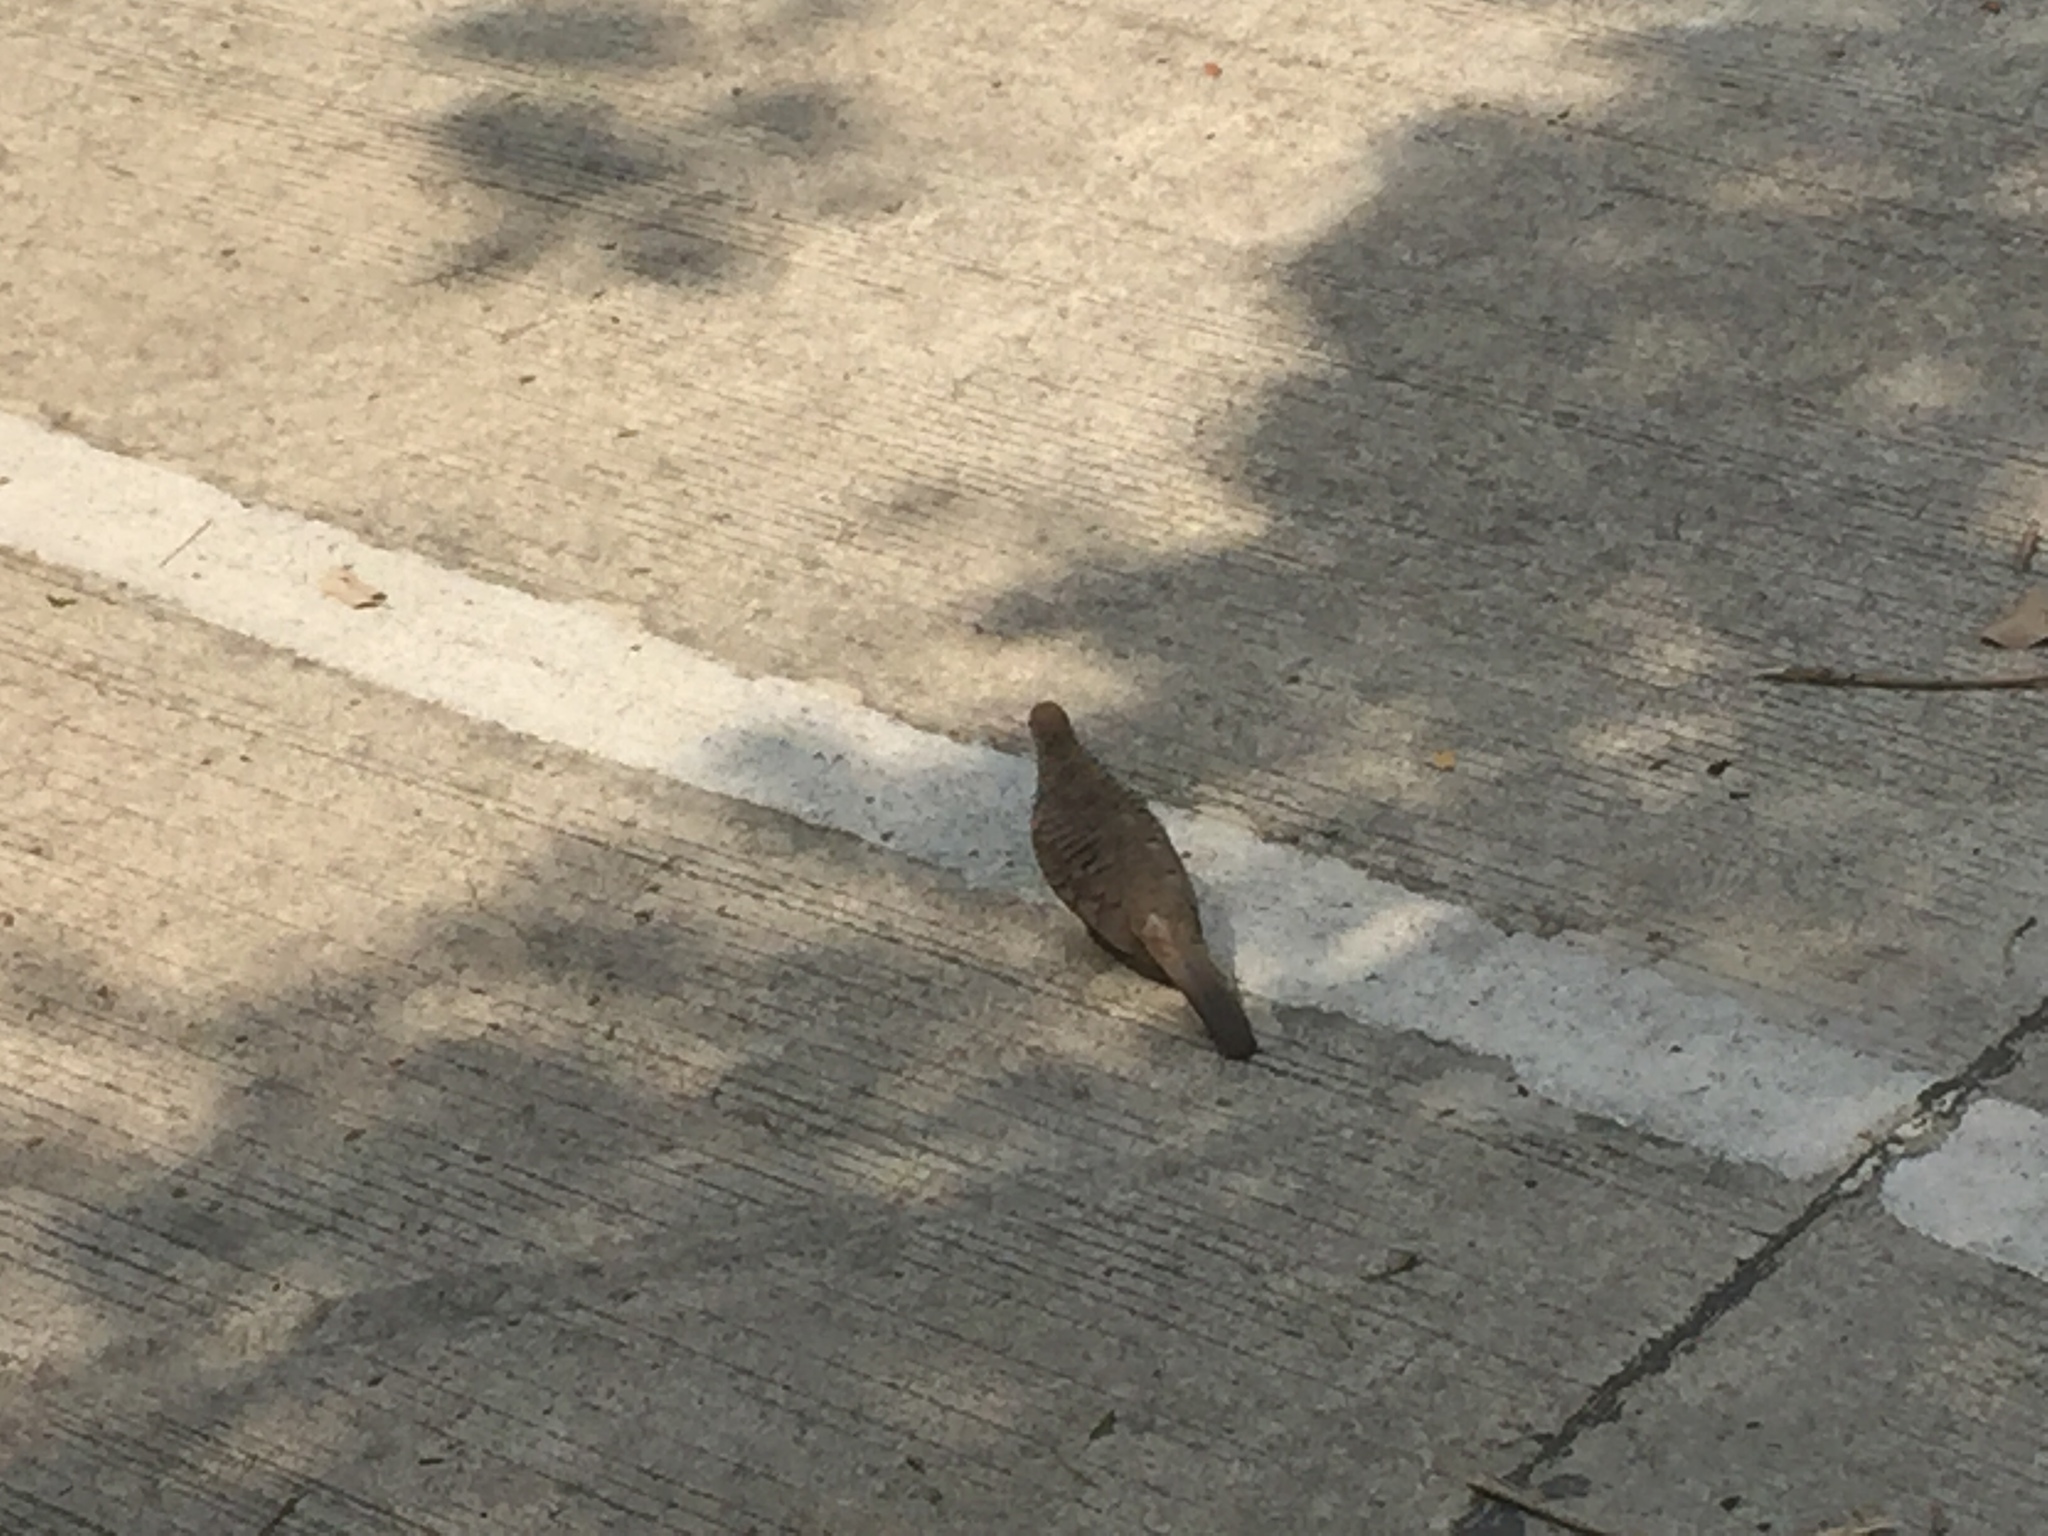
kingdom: Animalia
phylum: Chordata
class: Aves
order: Columbiformes
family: Columbidae
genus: Geopelia
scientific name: Geopelia striata
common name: Zebra dove
